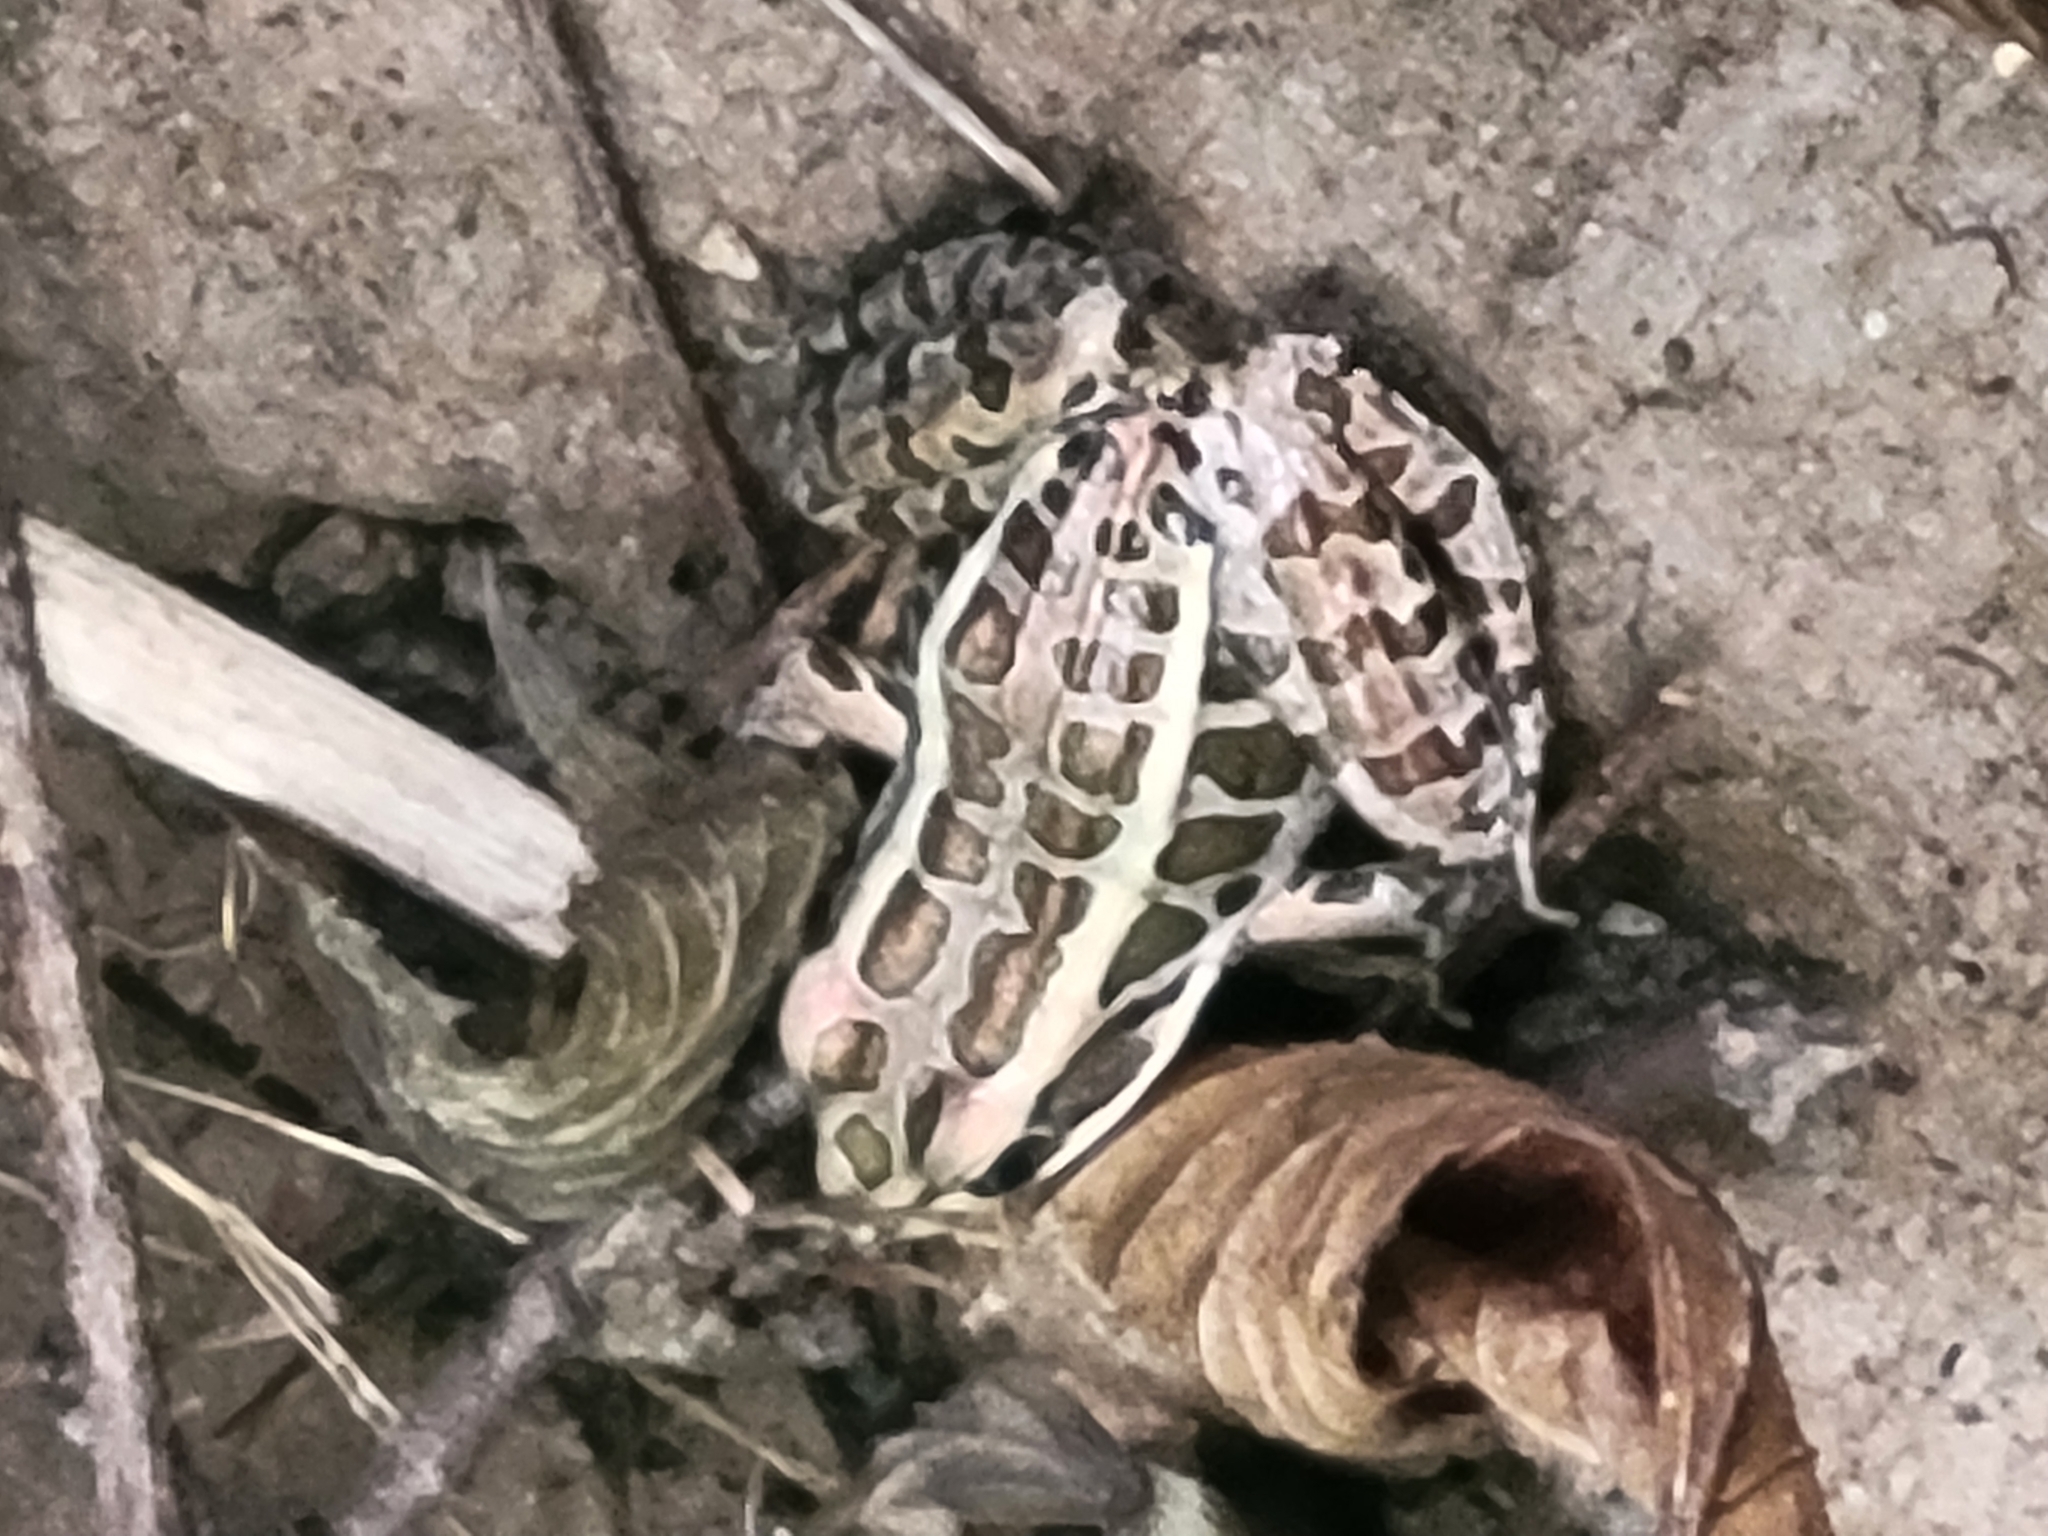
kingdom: Animalia
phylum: Chordata
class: Amphibia
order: Anura
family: Ranidae
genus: Lithobates
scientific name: Lithobates palustris
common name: Pickerel frog
